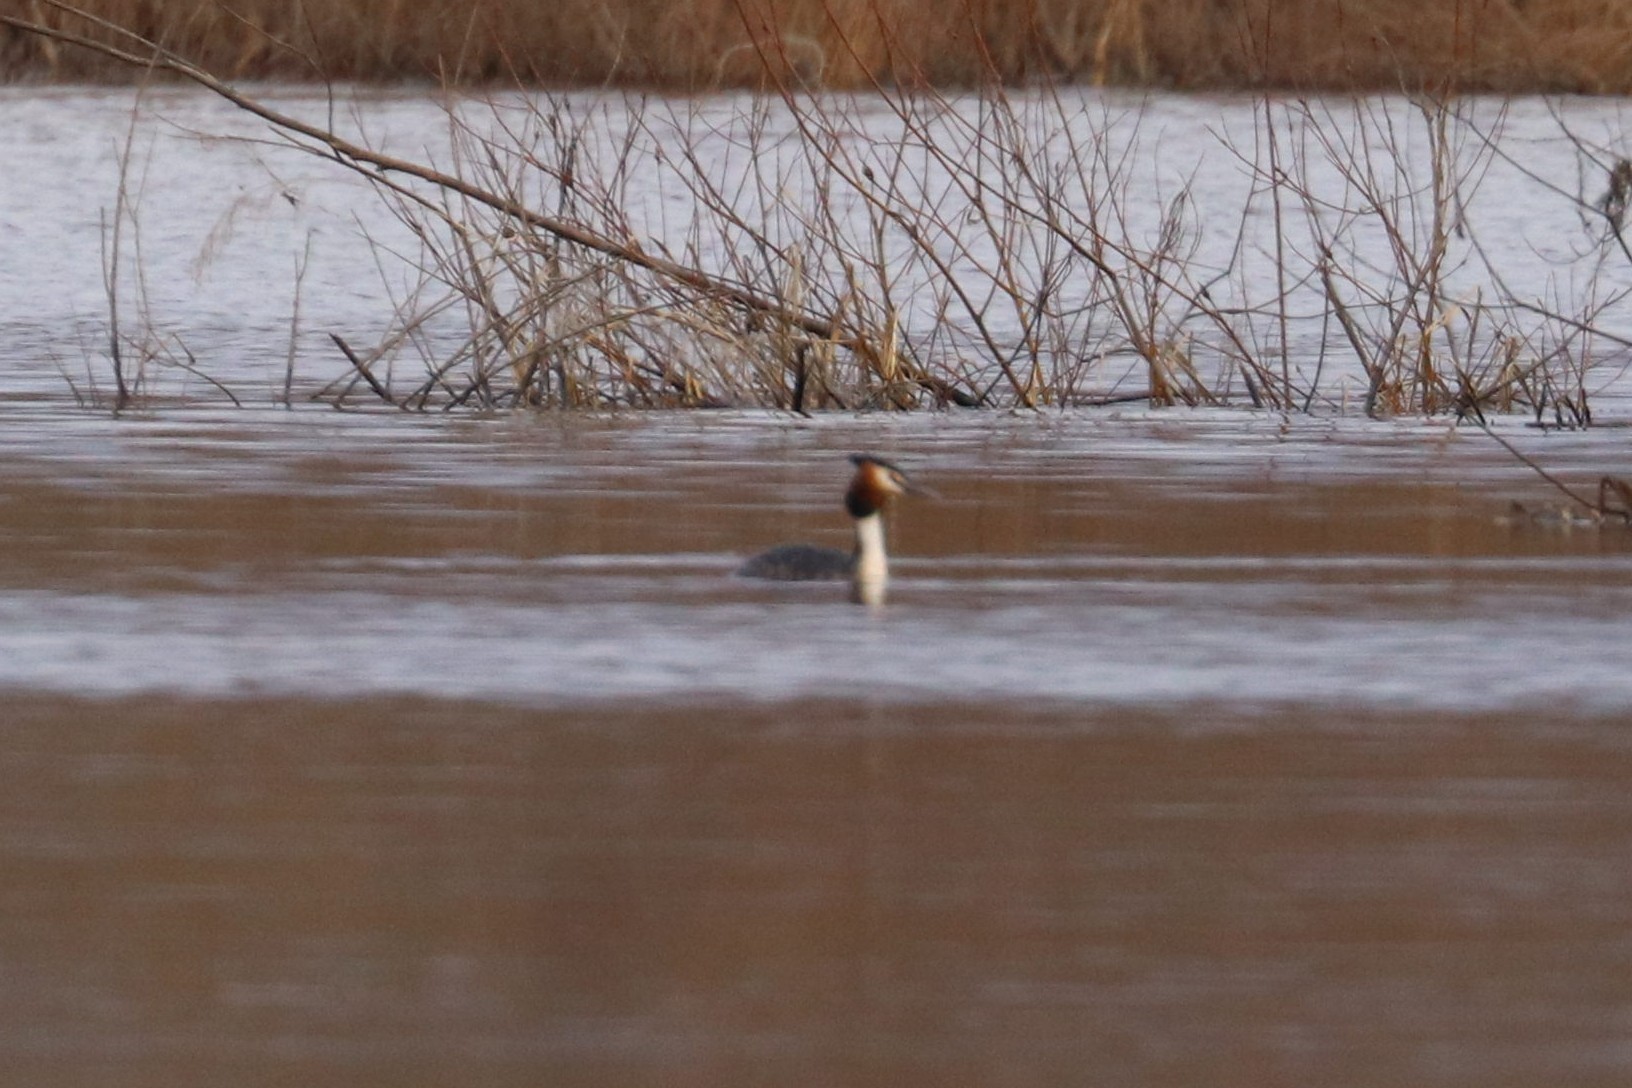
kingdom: Animalia
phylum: Chordata
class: Aves
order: Podicipediformes
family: Podicipedidae
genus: Podiceps
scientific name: Podiceps cristatus
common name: Great crested grebe
